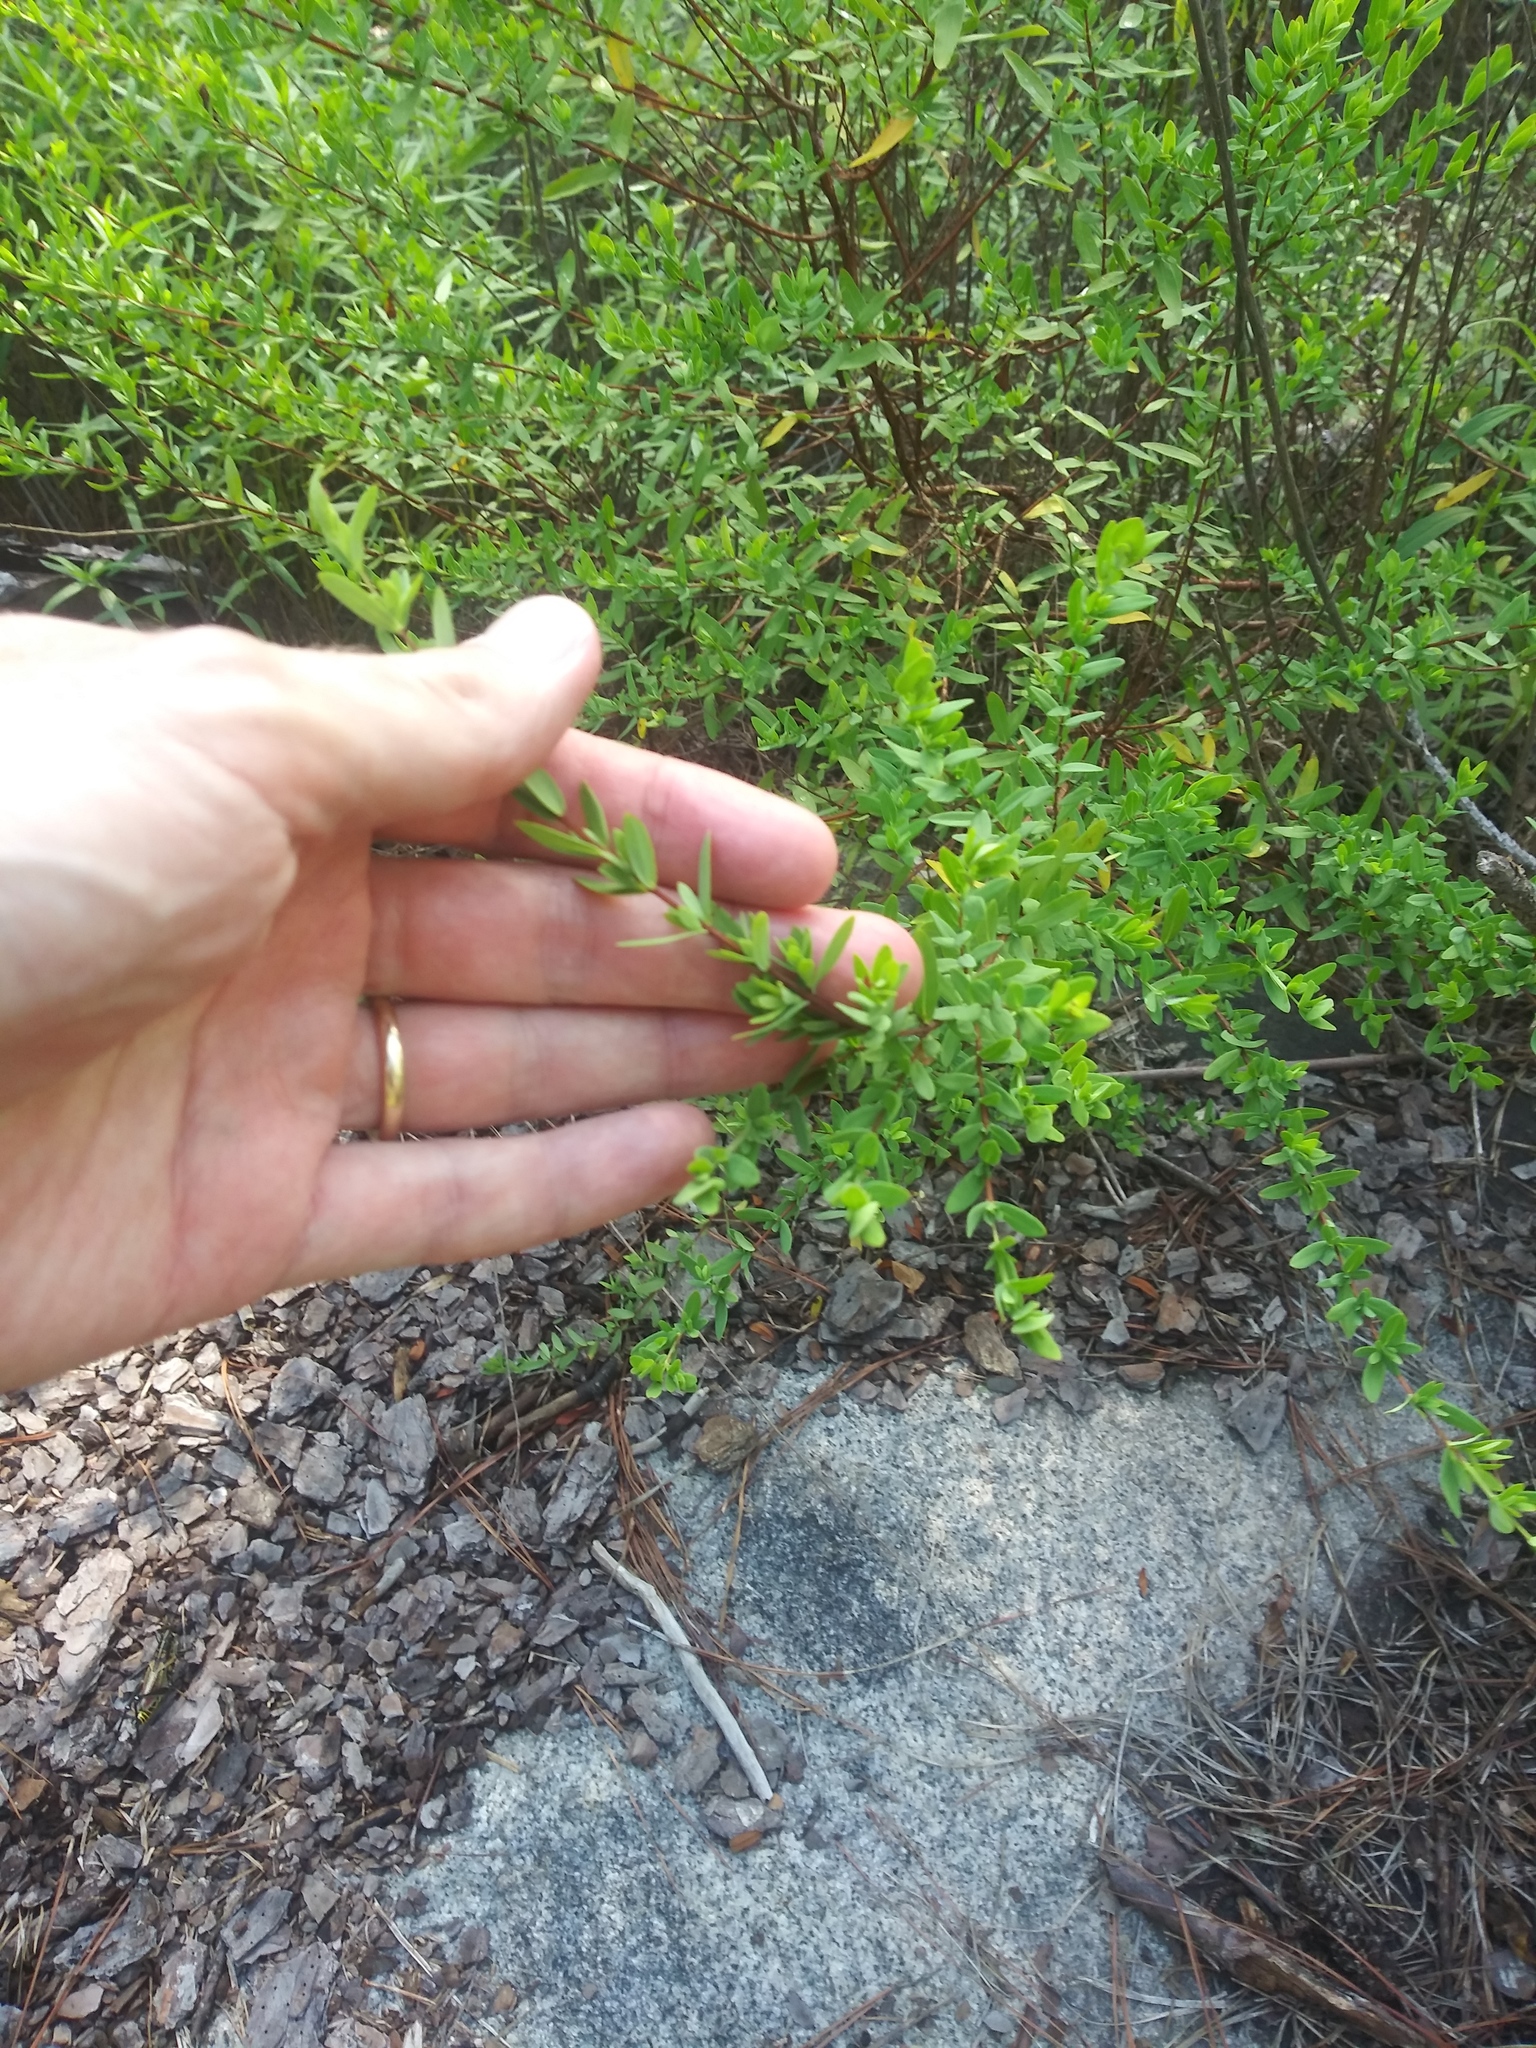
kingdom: Plantae
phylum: Tracheophyta
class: Magnoliopsida
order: Malpighiales
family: Hypericaceae
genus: Hypericum
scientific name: Hypericum hypericoides
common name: St. andrew's cross
